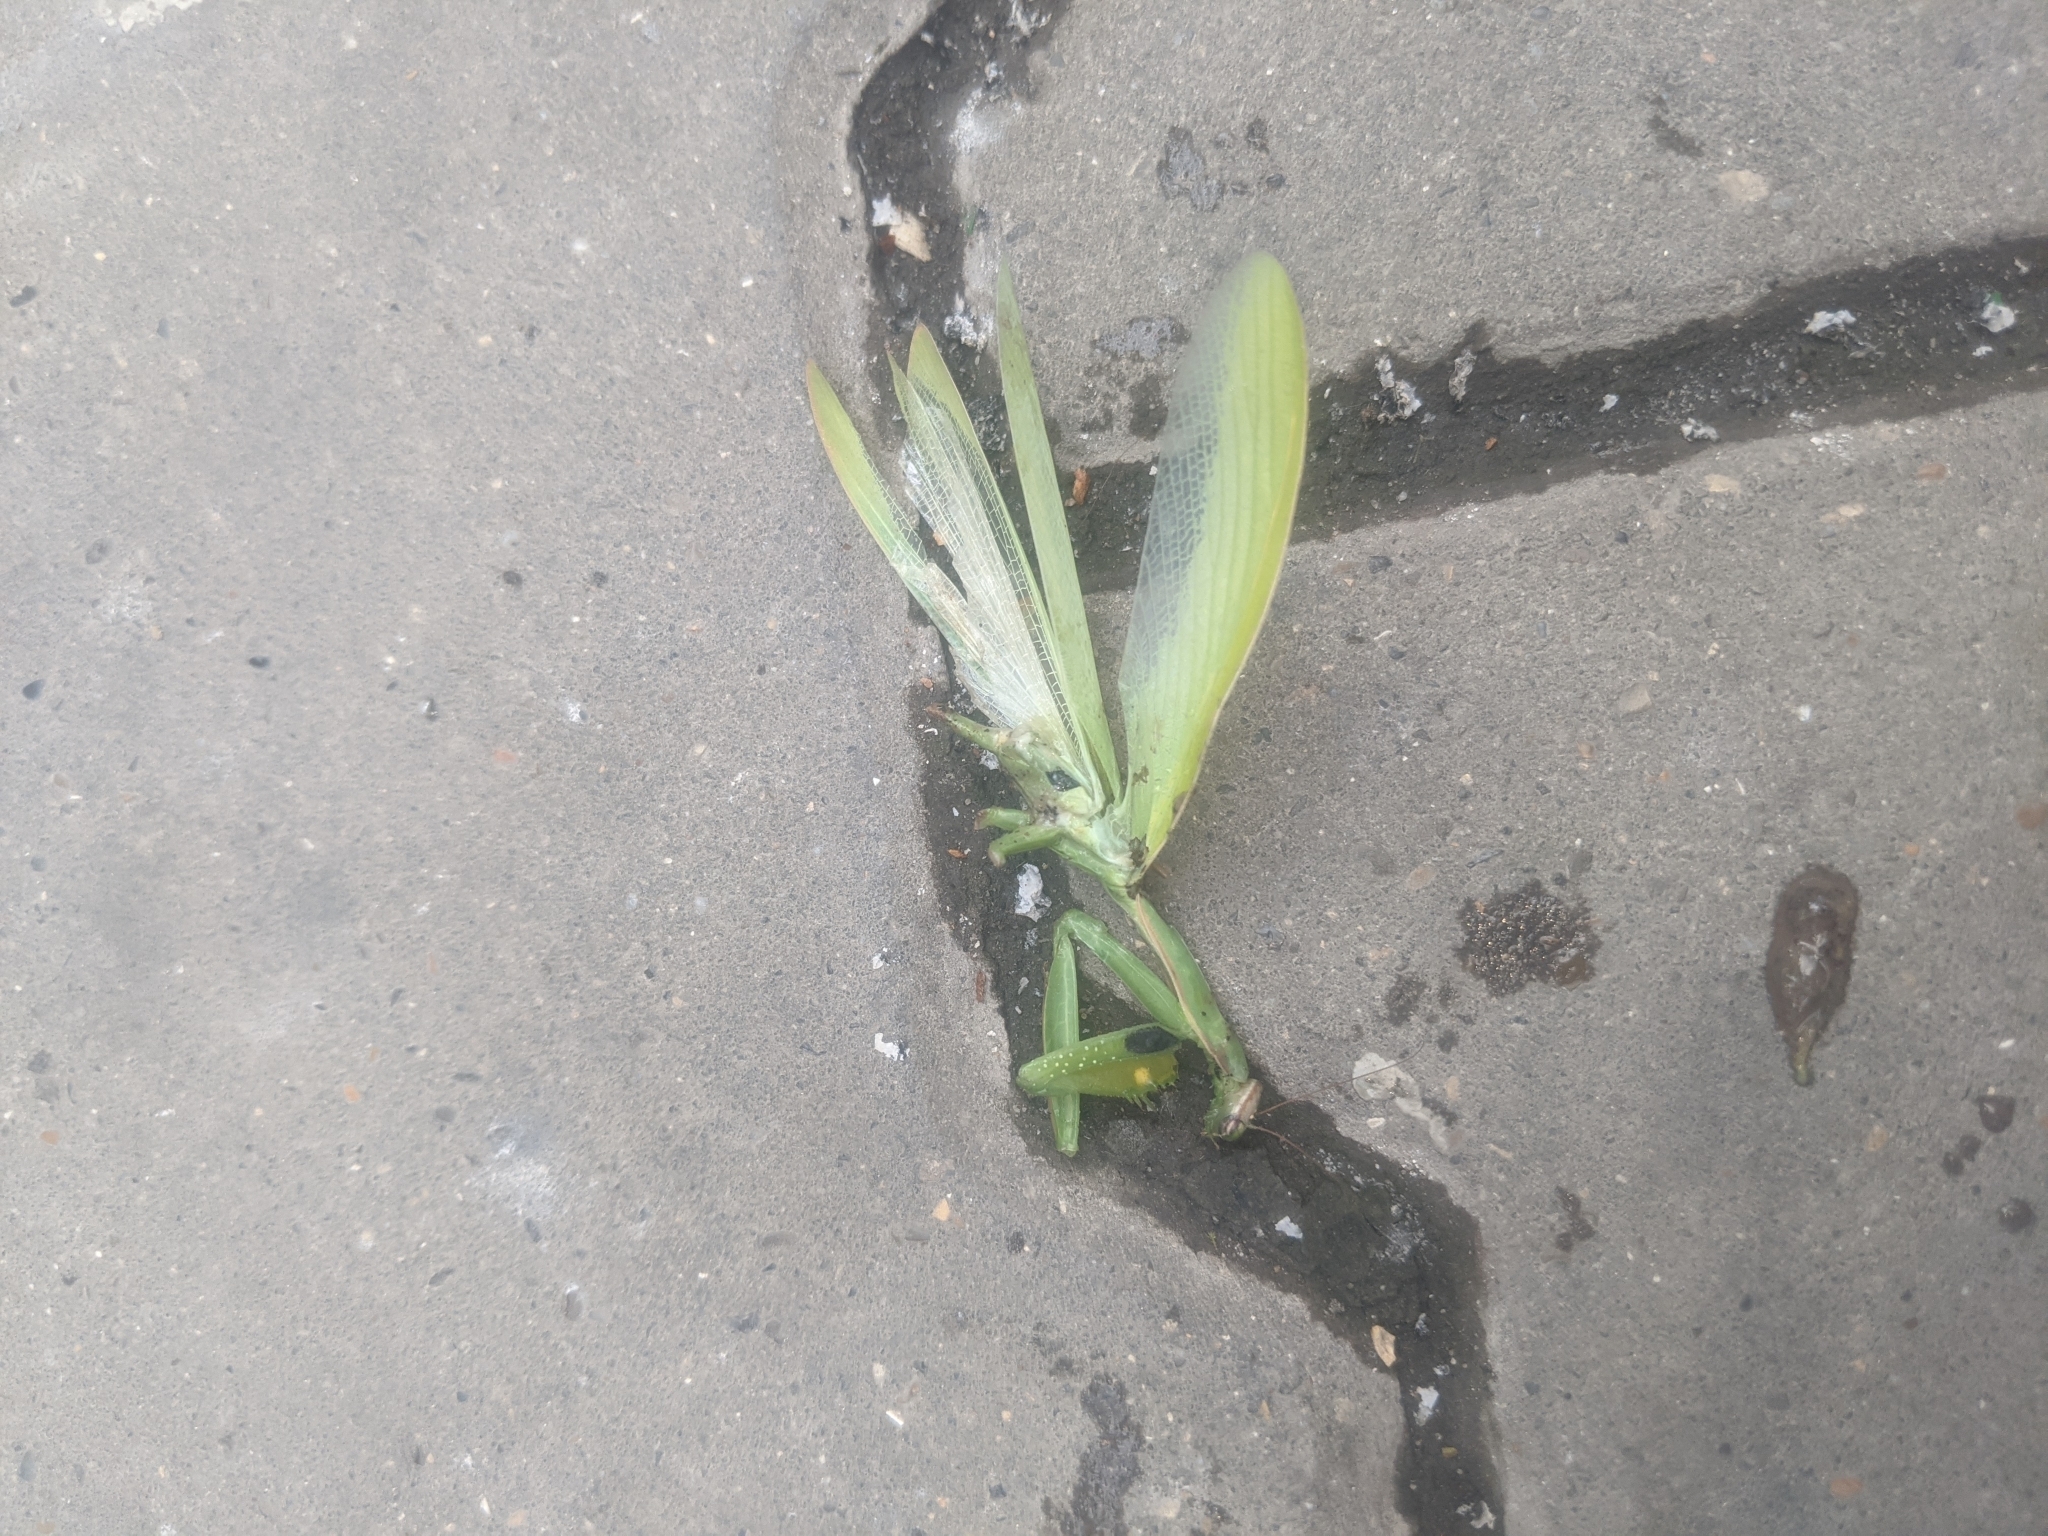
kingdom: Animalia
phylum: Arthropoda
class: Insecta
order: Mantodea
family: Mantidae
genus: Mantis
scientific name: Mantis religiosa
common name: Praying mantis
